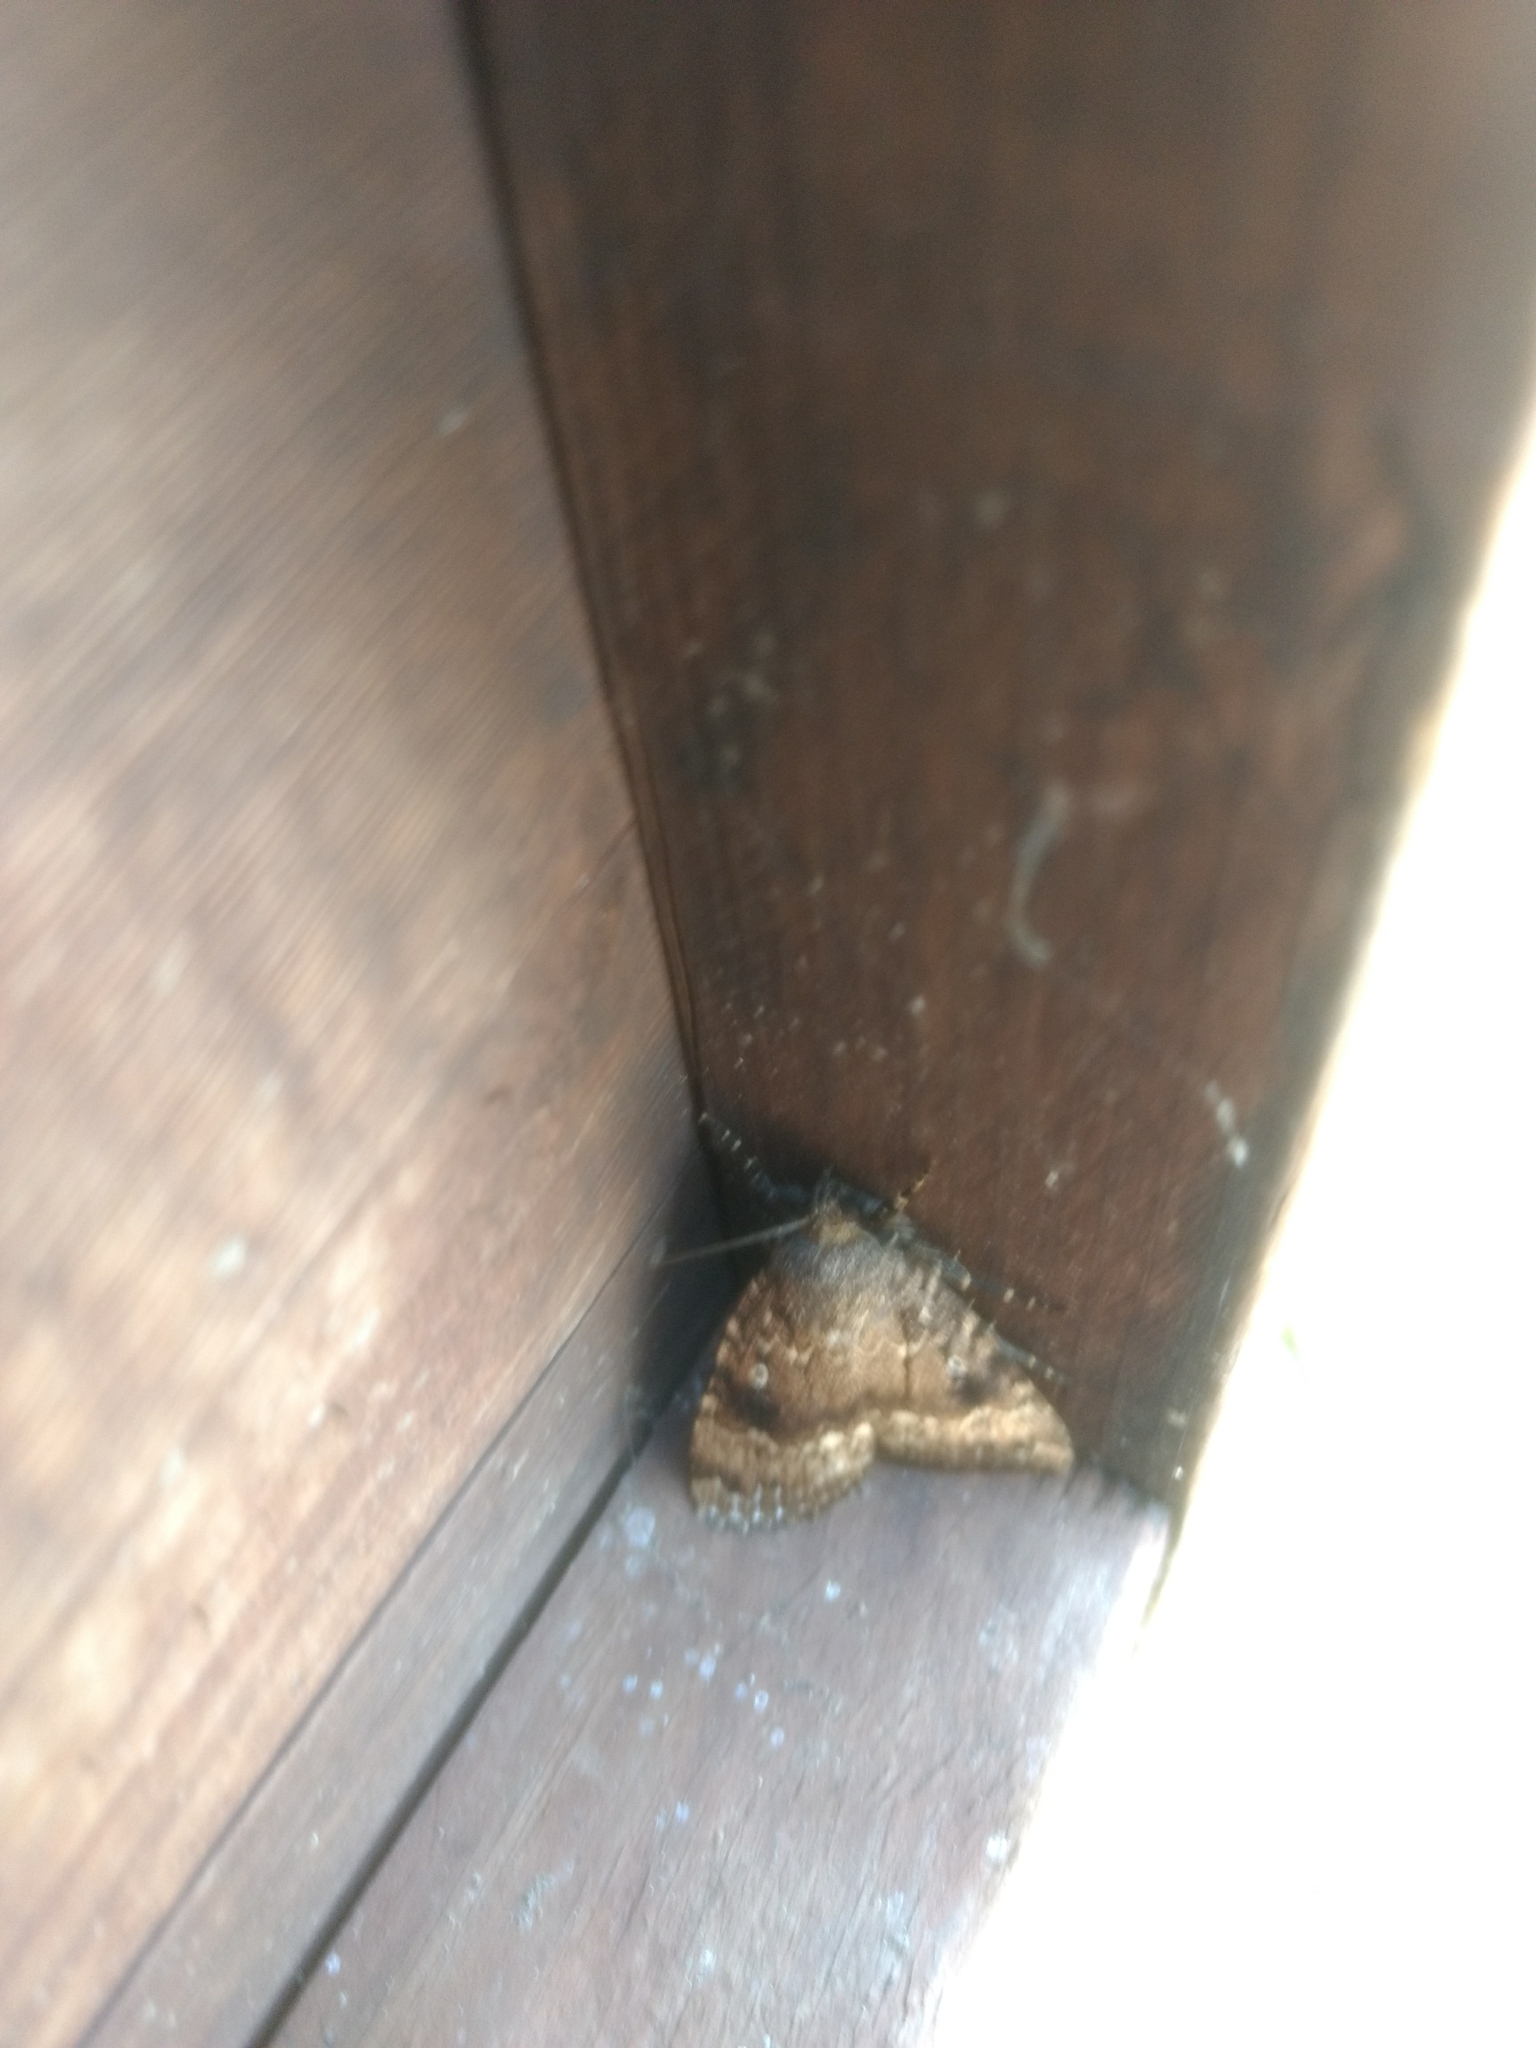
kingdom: Animalia
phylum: Arthropoda
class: Insecta
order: Lepidoptera
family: Noctuidae
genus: Amphipyra
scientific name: Amphipyra pyramidea
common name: Copper underwing
